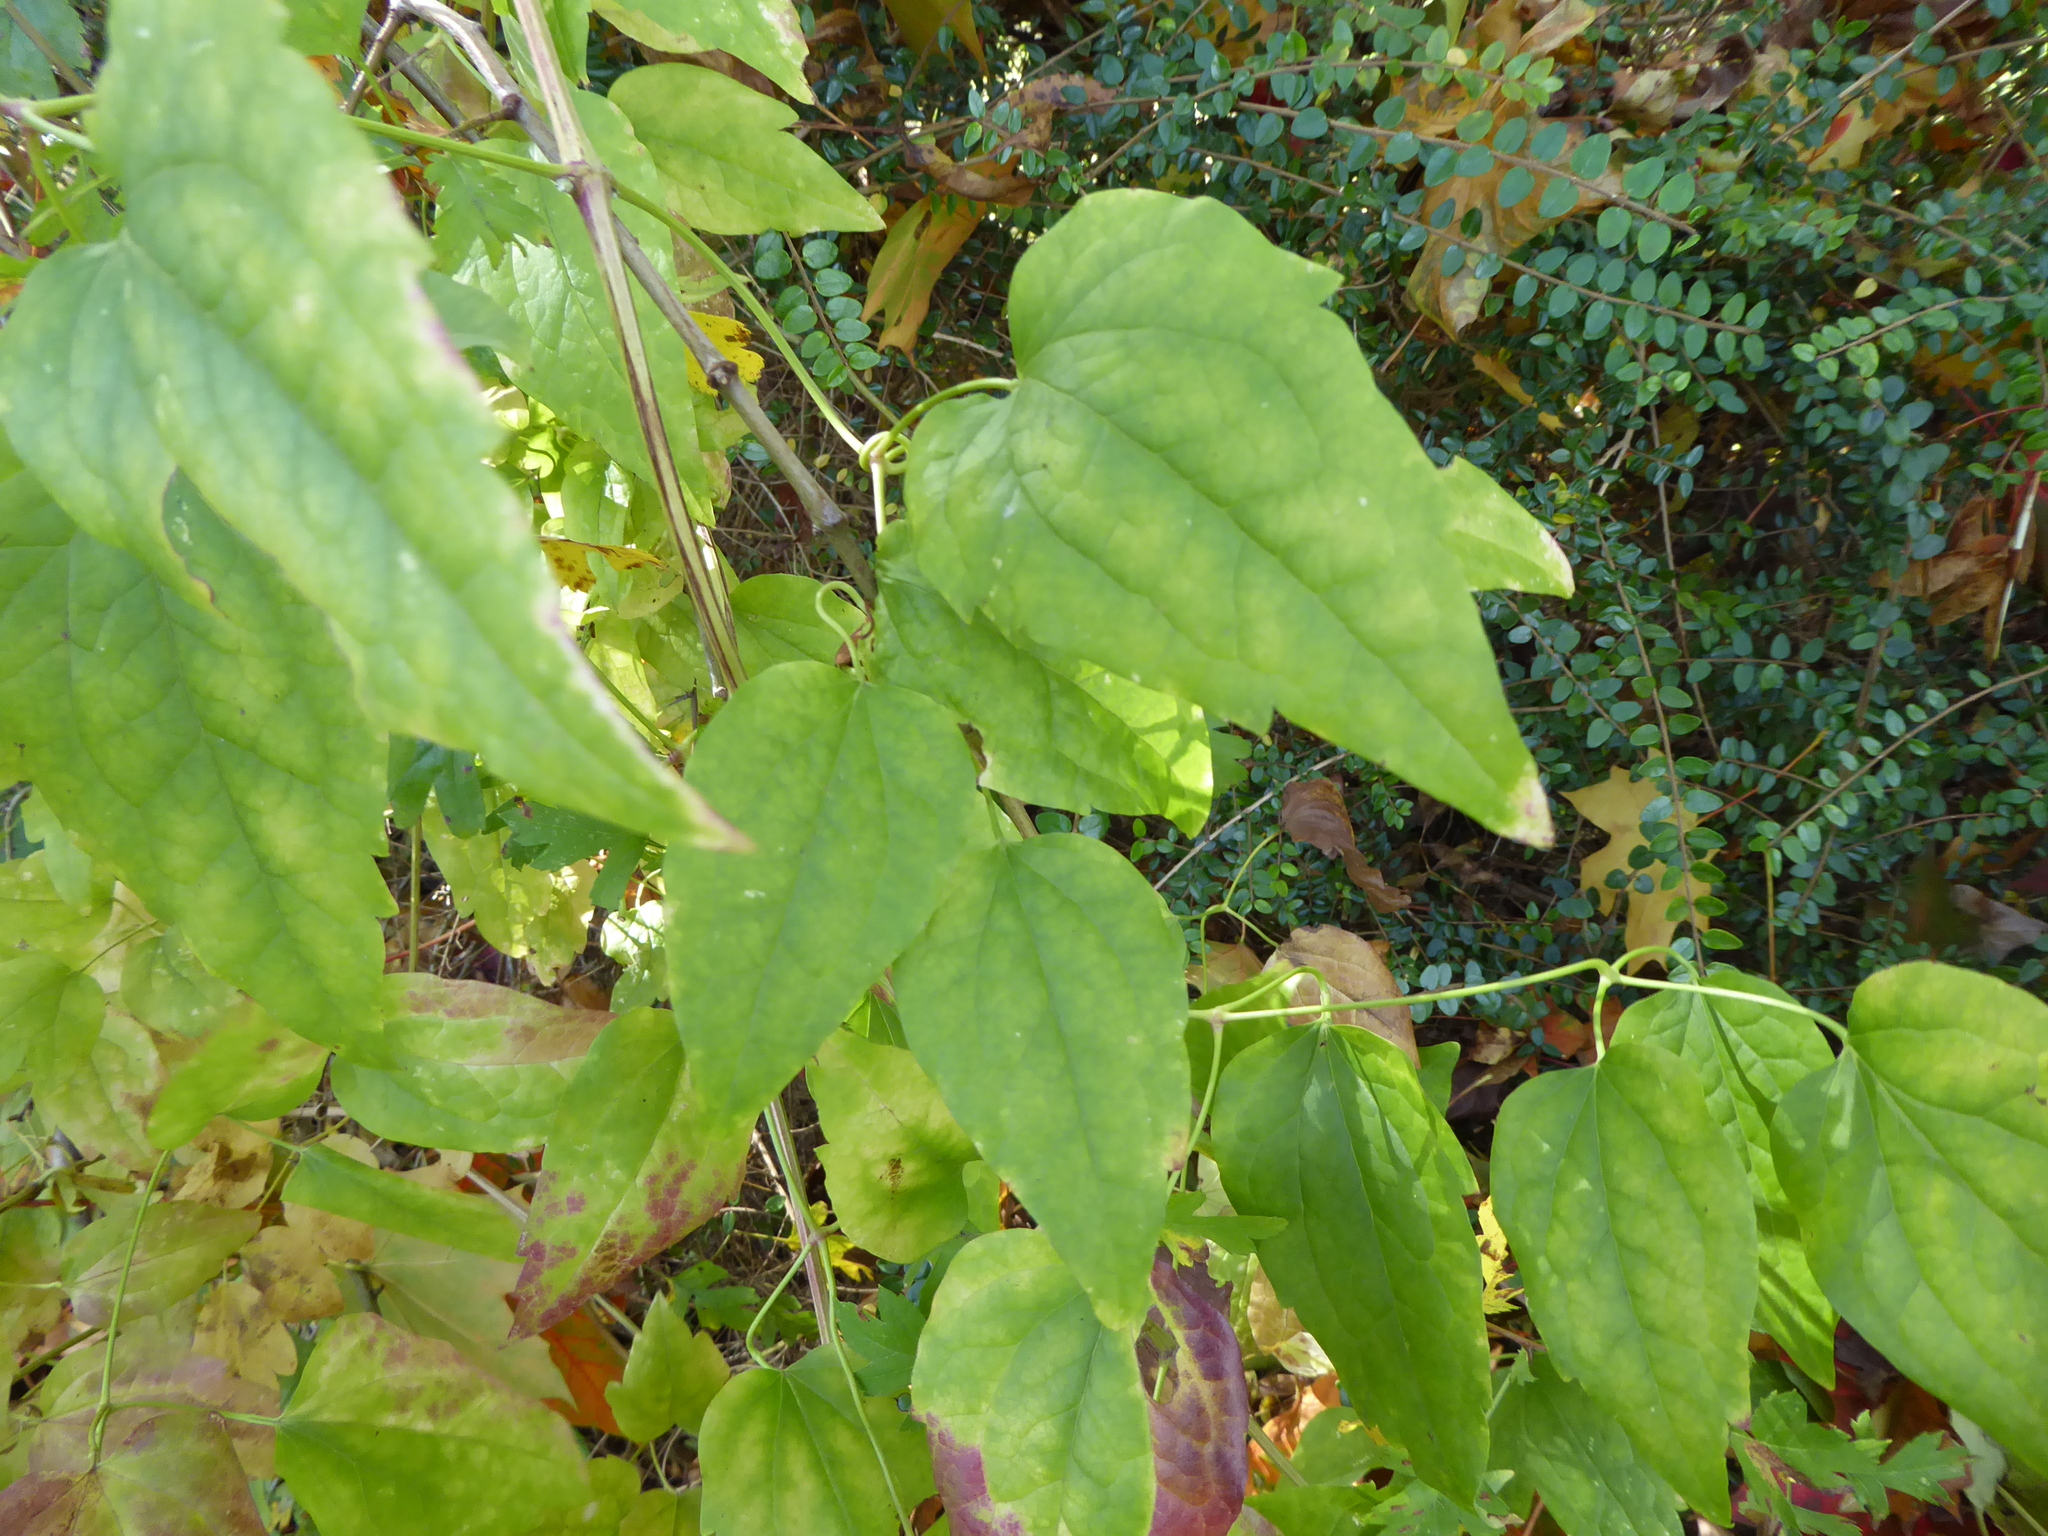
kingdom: Plantae
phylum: Tracheophyta
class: Magnoliopsida
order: Ranunculales
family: Ranunculaceae
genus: Clematis
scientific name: Clematis vitalba
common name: Evergreen clematis
